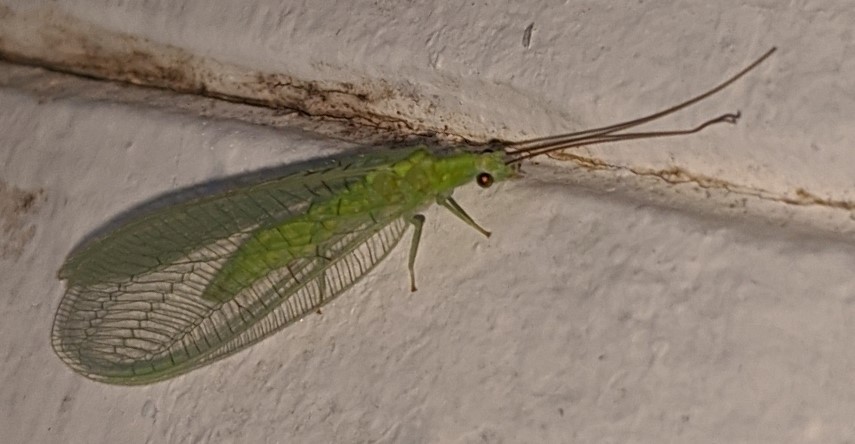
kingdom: Animalia
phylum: Arthropoda
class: Insecta
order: Neuroptera
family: Chrysopidae
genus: Chrysopa
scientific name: Chrysopa nigricornis
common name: Black-horned green lacewing
